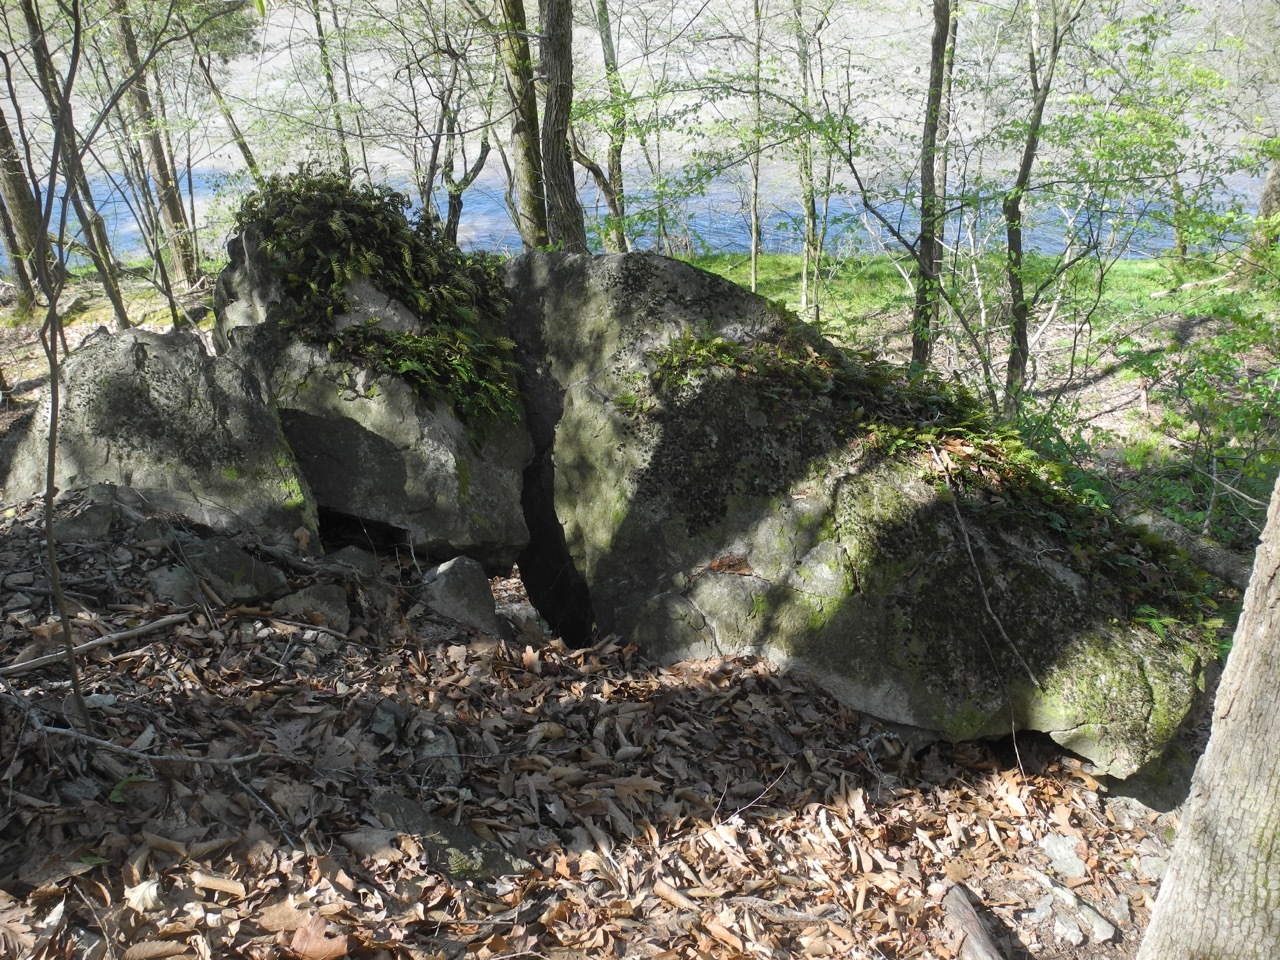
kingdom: Plantae
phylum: Tracheophyta
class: Polypodiopsida
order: Polypodiales
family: Polypodiaceae
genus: Pleopeltis
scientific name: Pleopeltis michauxiana
